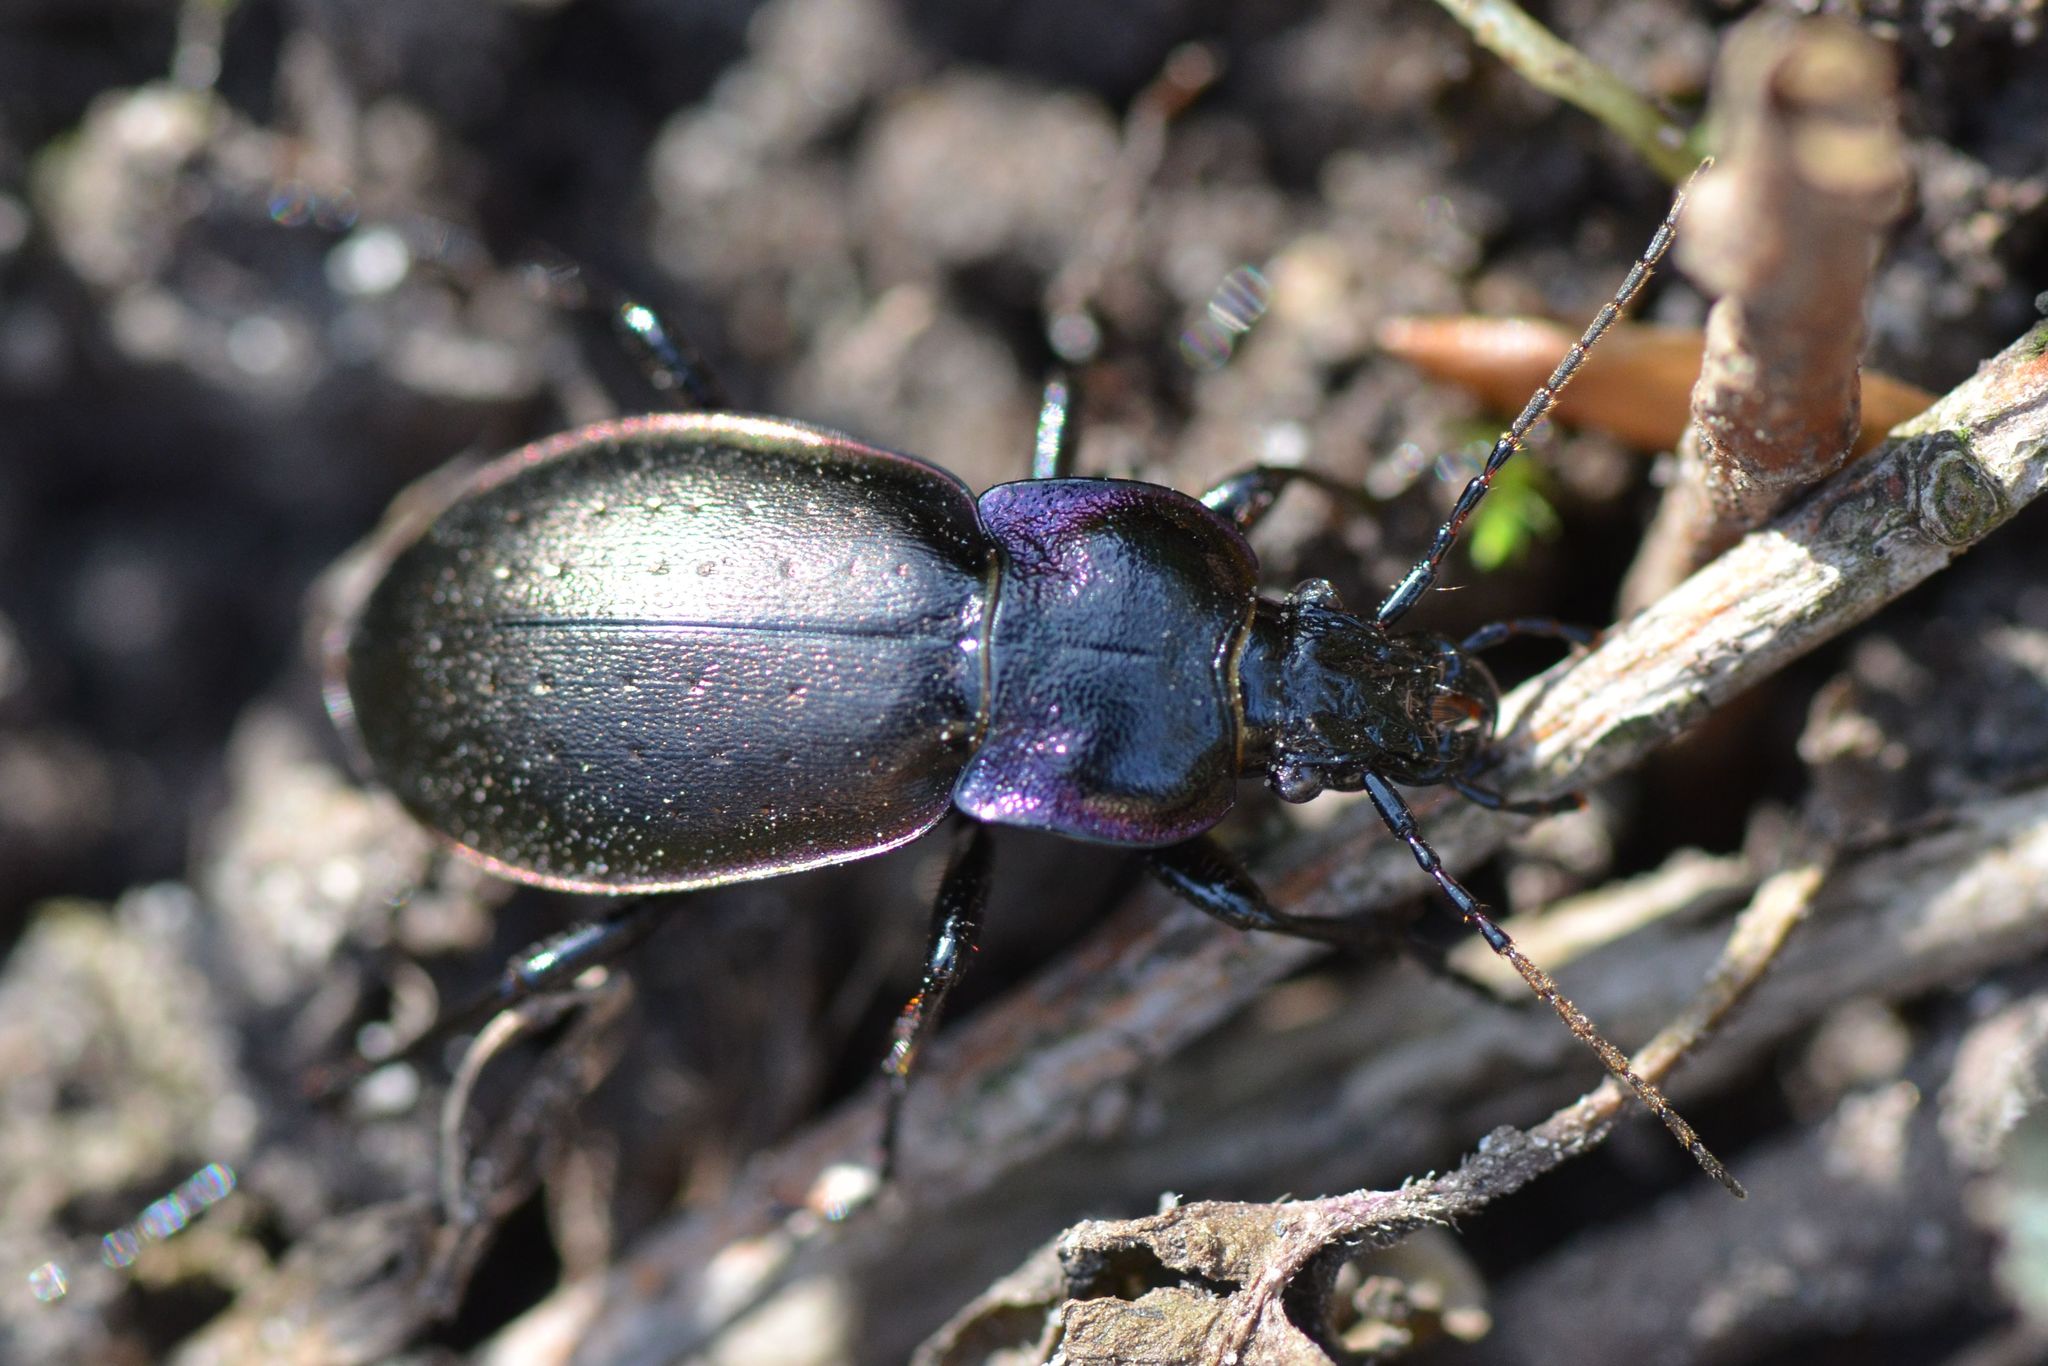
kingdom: Animalia
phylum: Arthropoda
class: Insecta
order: Coleoptera
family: Carabidae
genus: Carabus
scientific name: Carabus nemoralis
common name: European ground beetle
